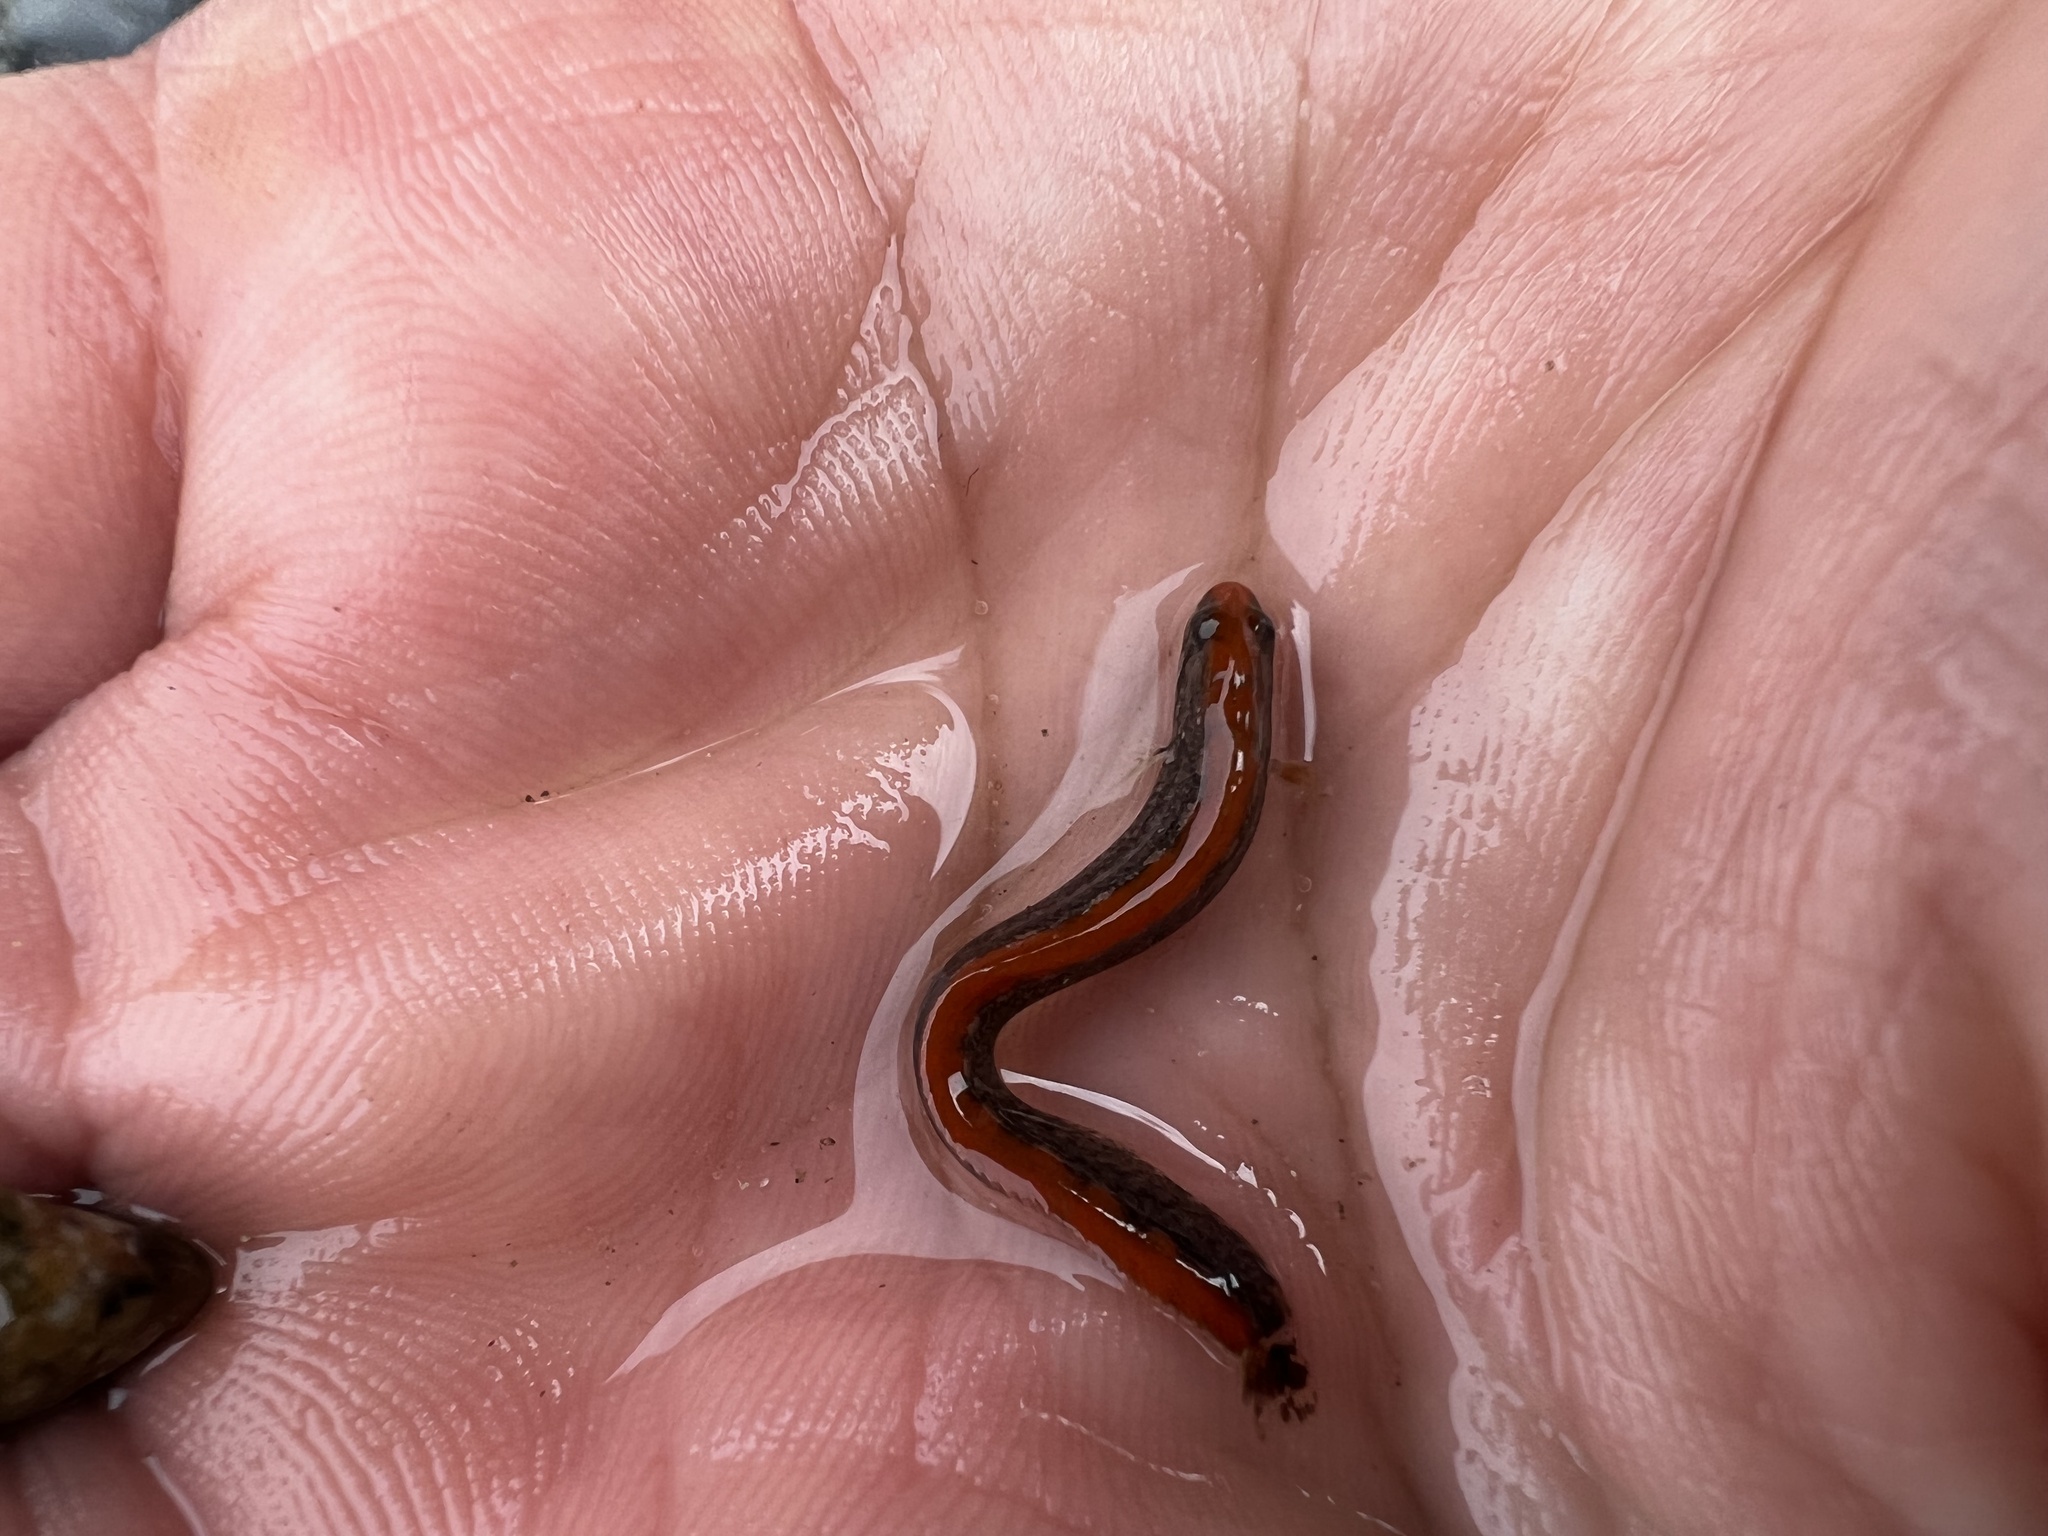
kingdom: Animalia
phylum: Chordata
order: Perciformes
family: Stichaeidae
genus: Anoplarchus
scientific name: Anoplarchus purpurescens
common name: High cockscomb
